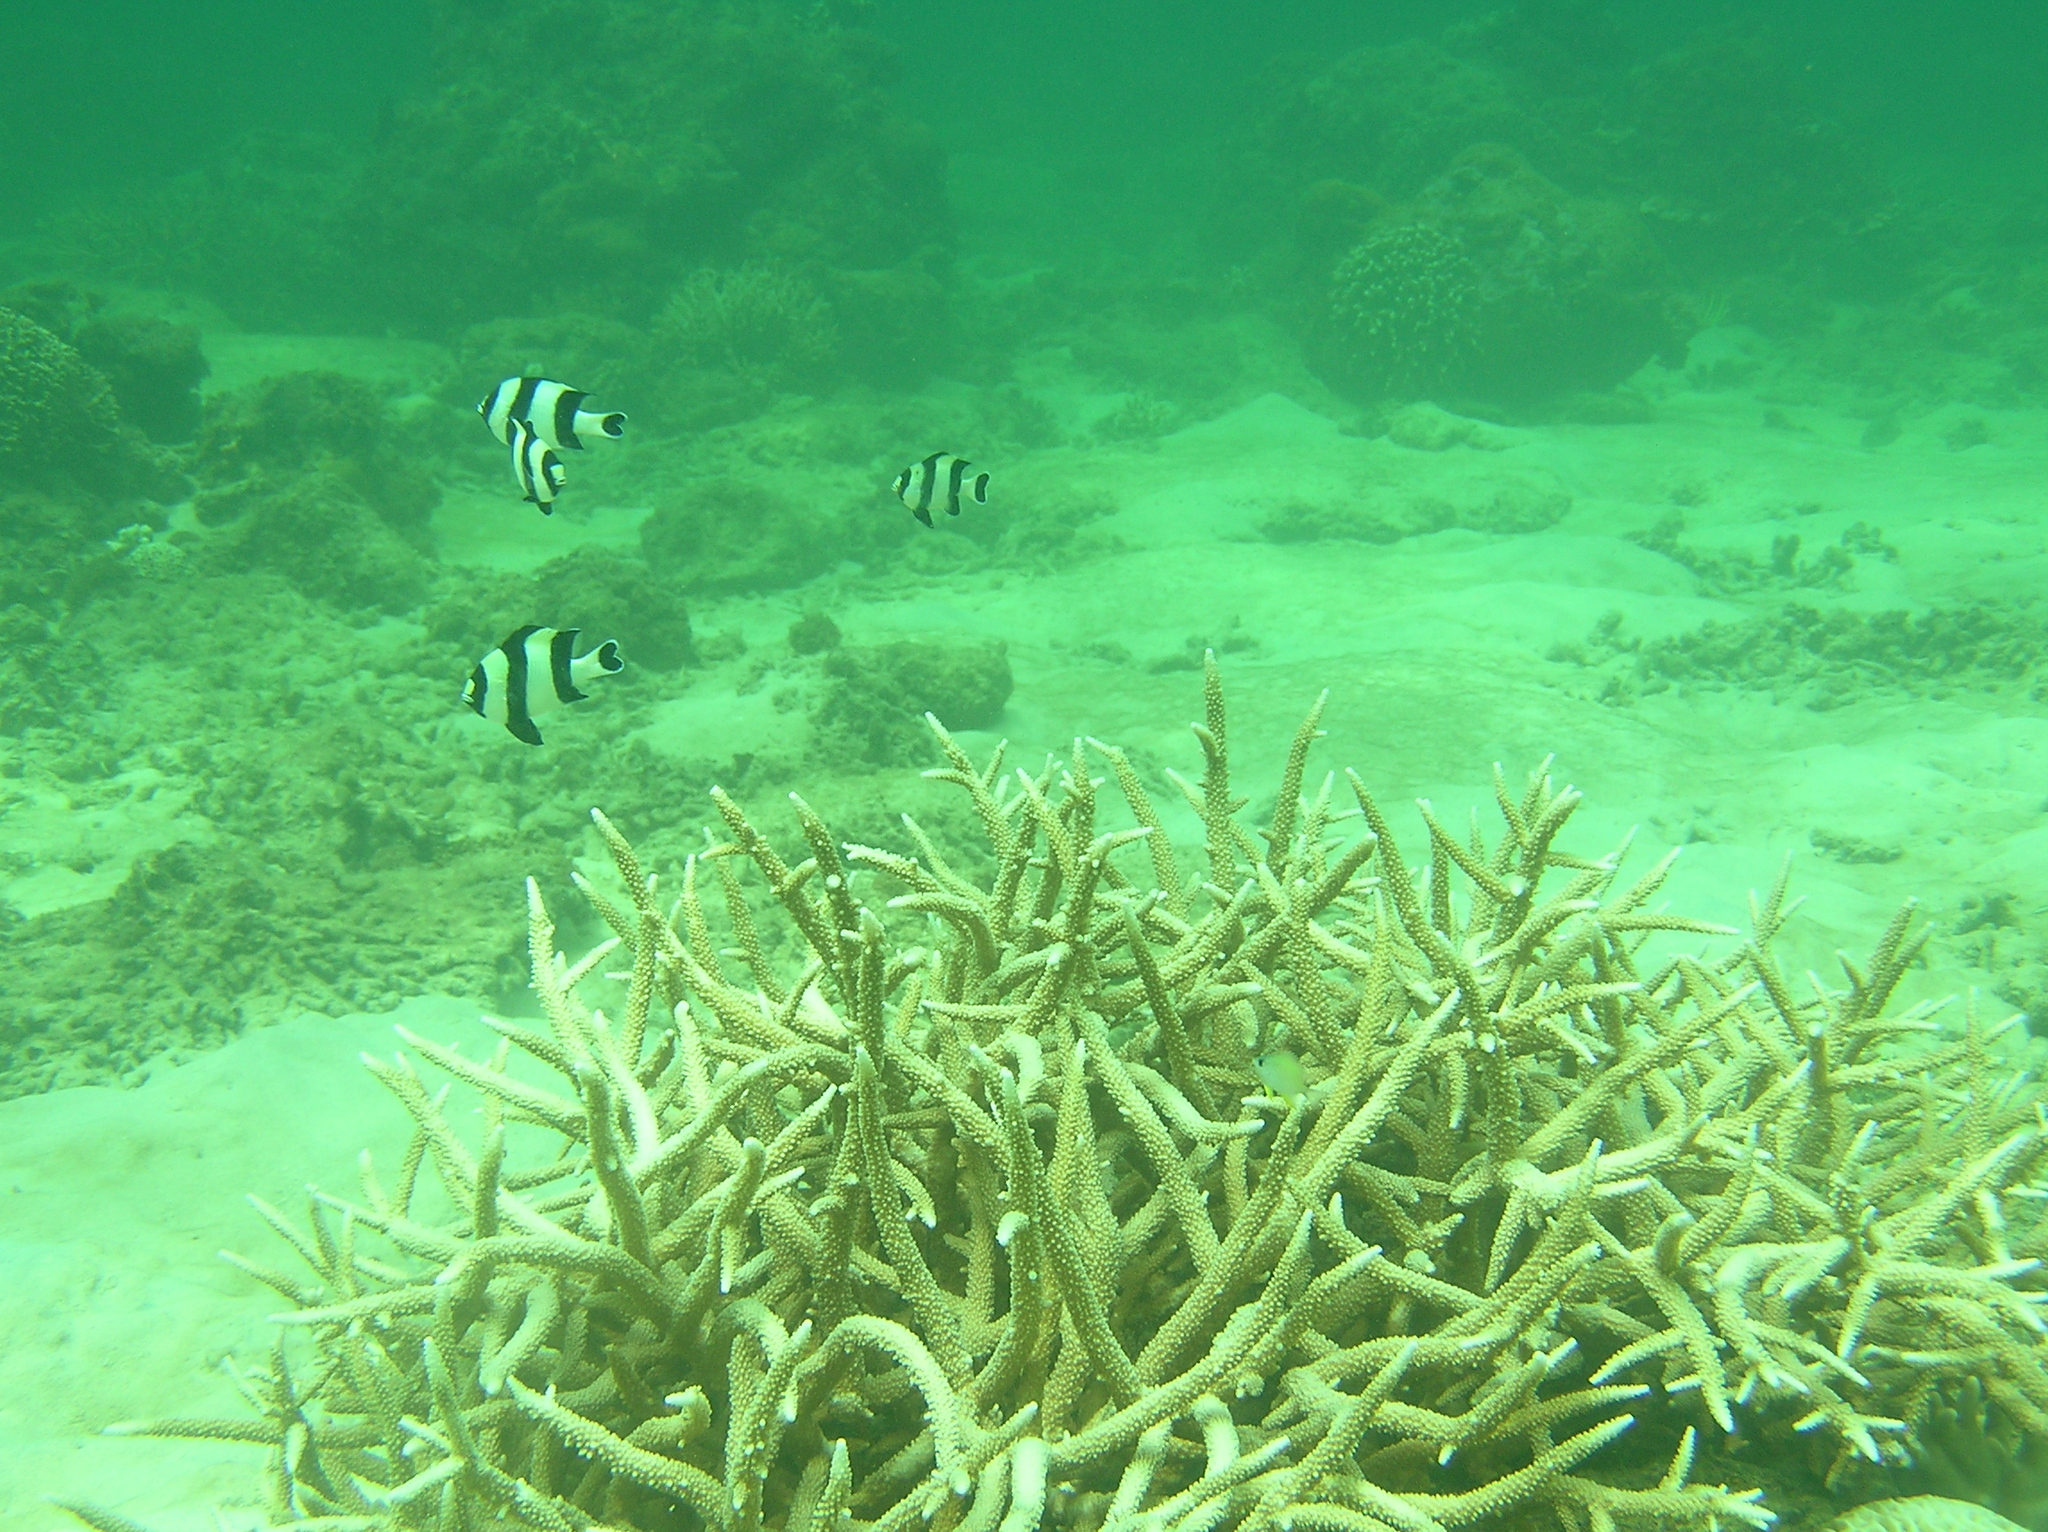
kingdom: Animalia
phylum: Chordata
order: Perciformes
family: Pomacentridae
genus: Dascyllus
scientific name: Dascyllus melanurus
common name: Black-tail dascyllus
